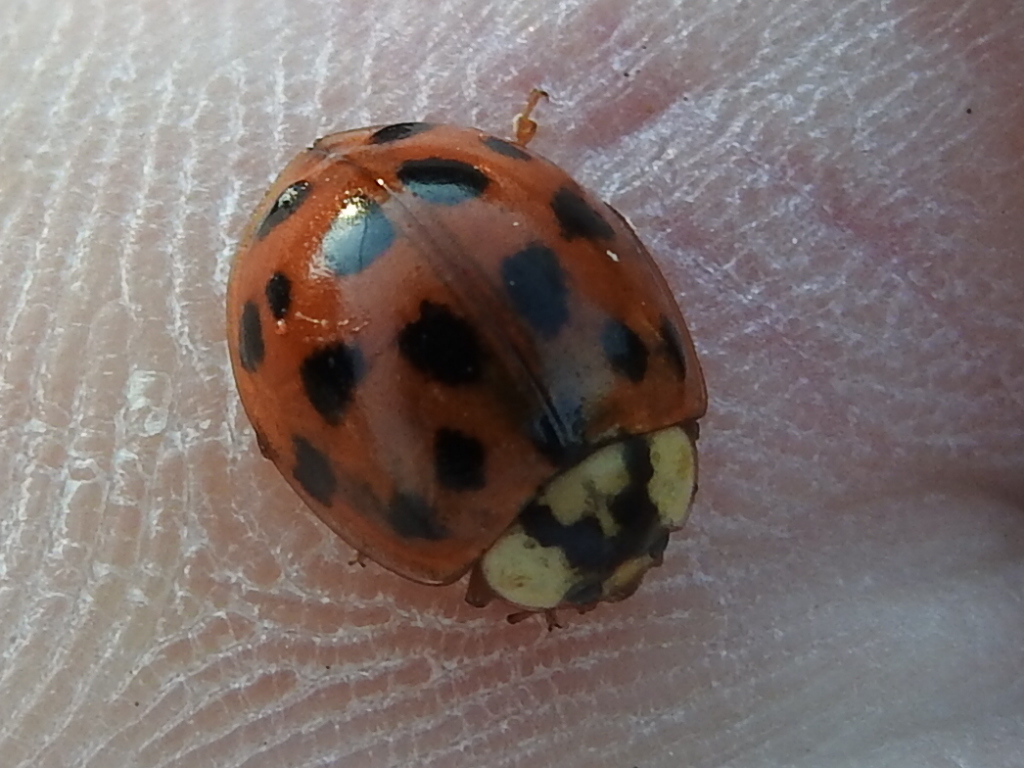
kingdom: Animalia
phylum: Arthropoda
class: Insecta
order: Coleoptera
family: Coccinellidae
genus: Harmonia
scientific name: Harmonia axyridis
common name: Harlequin ladybird
